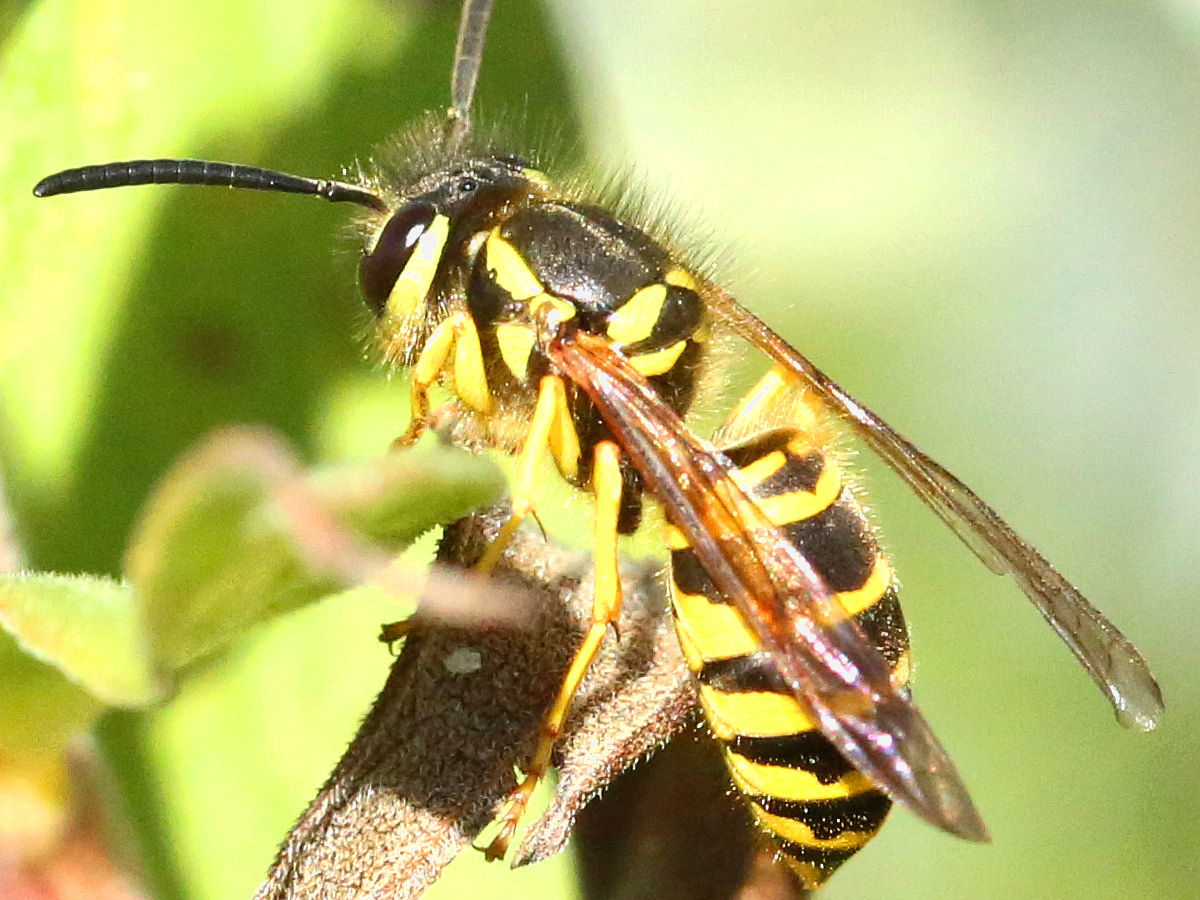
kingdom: Animalia
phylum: Arthropoda
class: Insecta
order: Hymenoptera
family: Vespidae
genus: Vespula
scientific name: Vespula maculifrons
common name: Eastern yellowjacket
